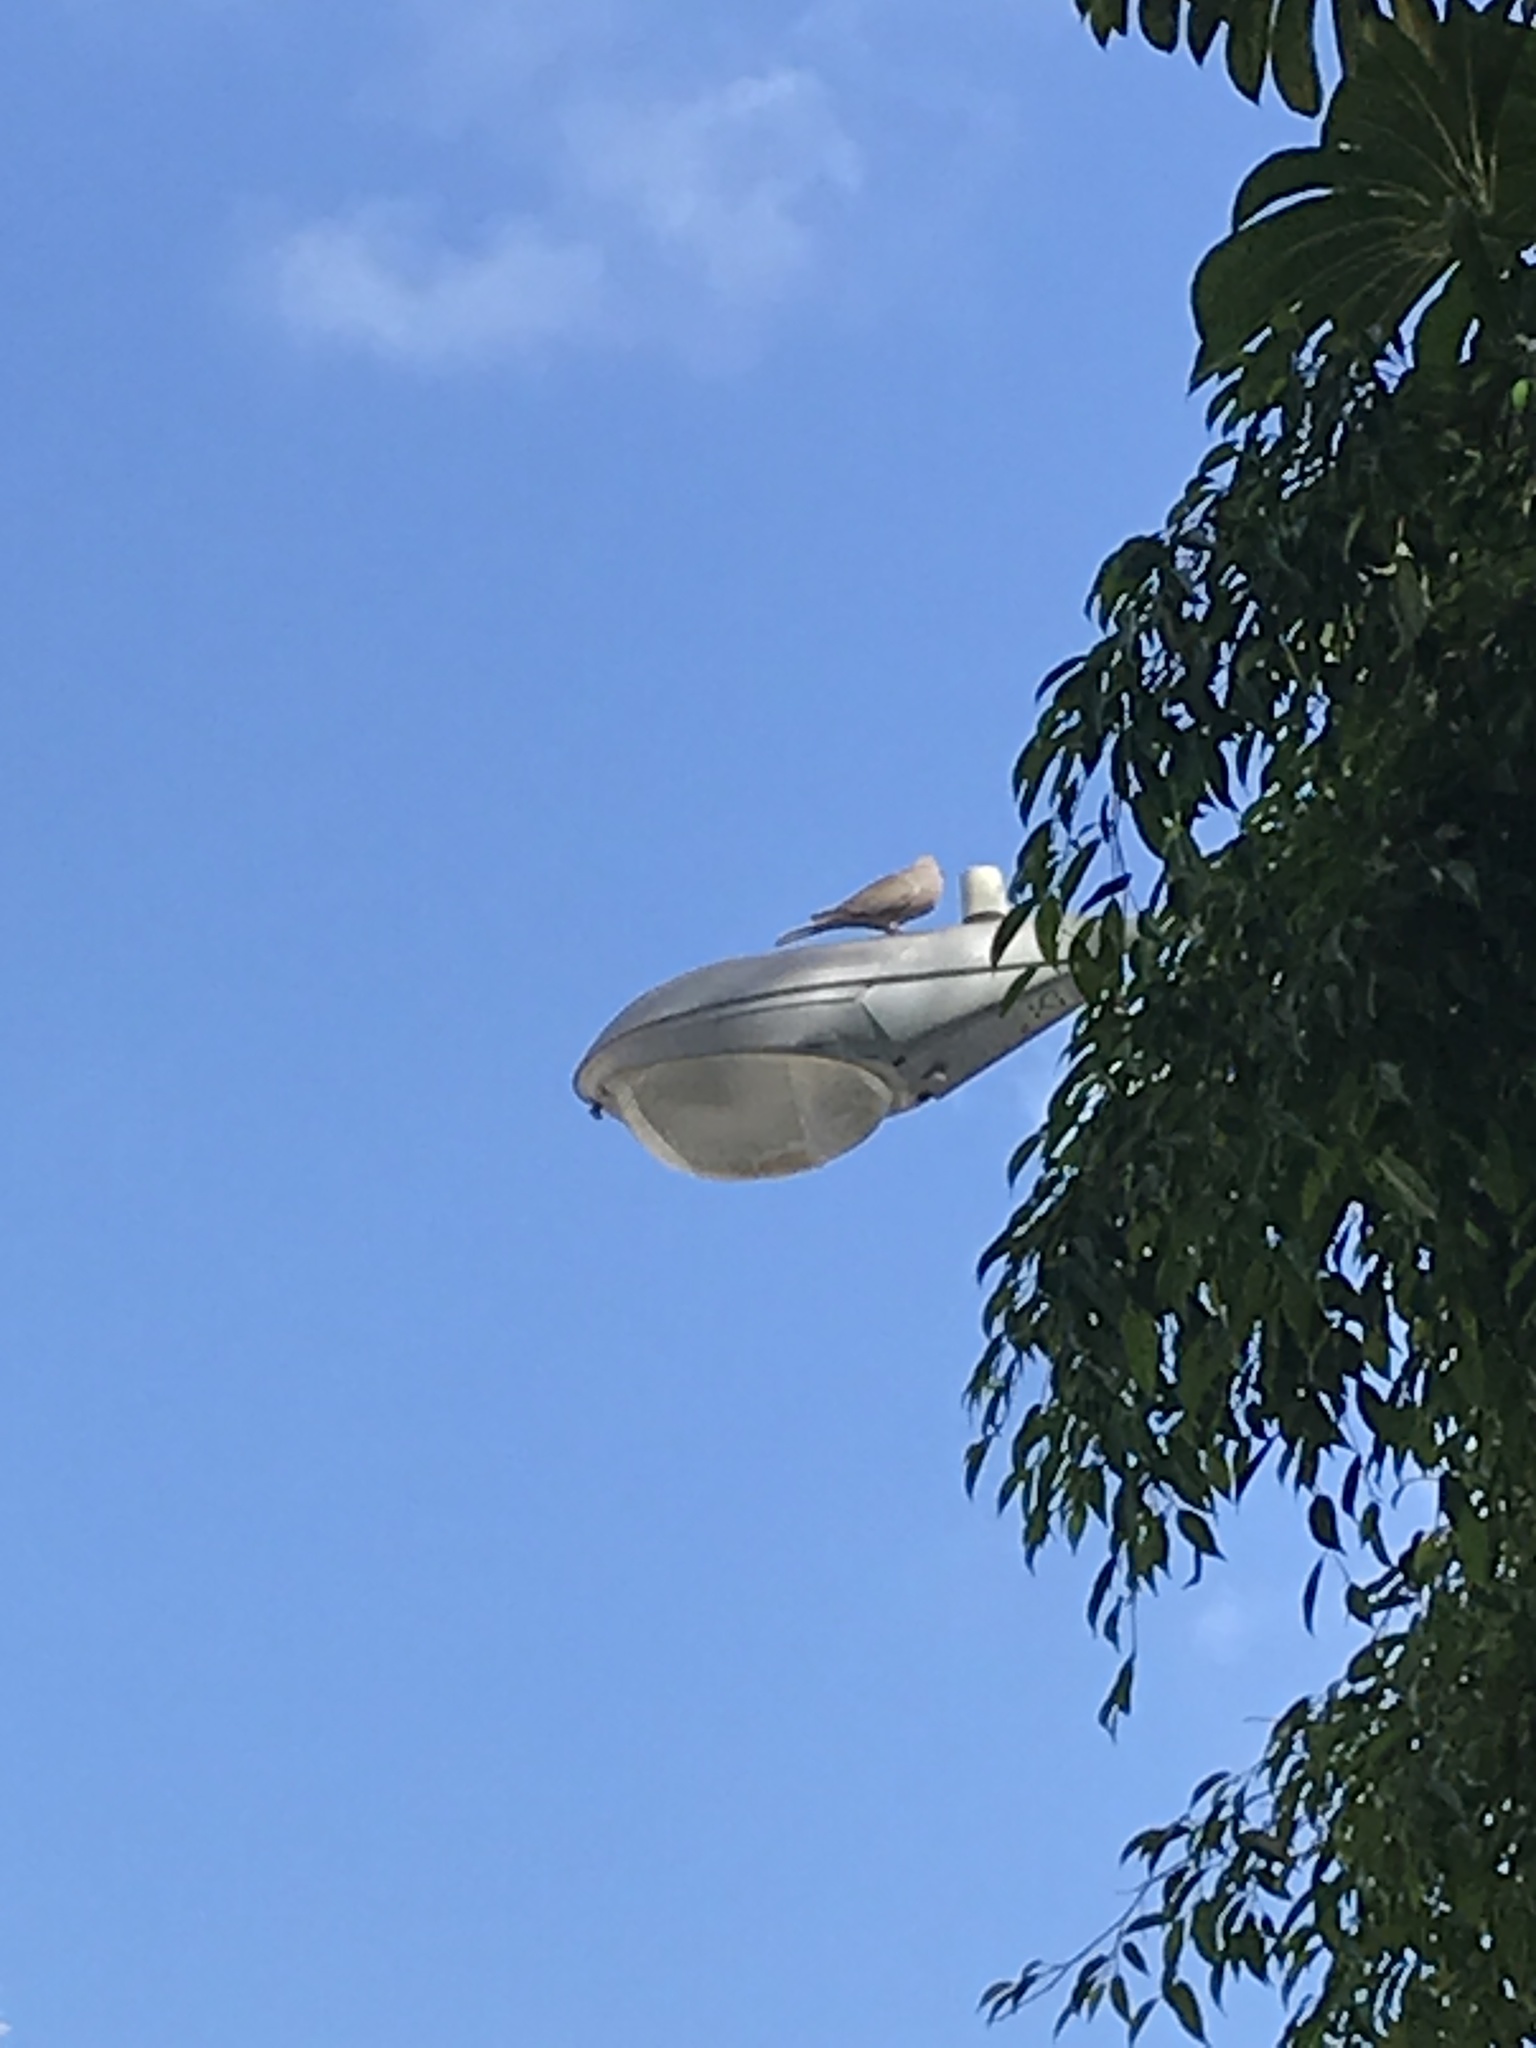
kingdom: Animalia
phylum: Chordata
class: Aves
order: Columbiformes
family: Columbidae
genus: Streptopelia
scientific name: Streptopelia decaocto
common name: Eurasian collared dove
